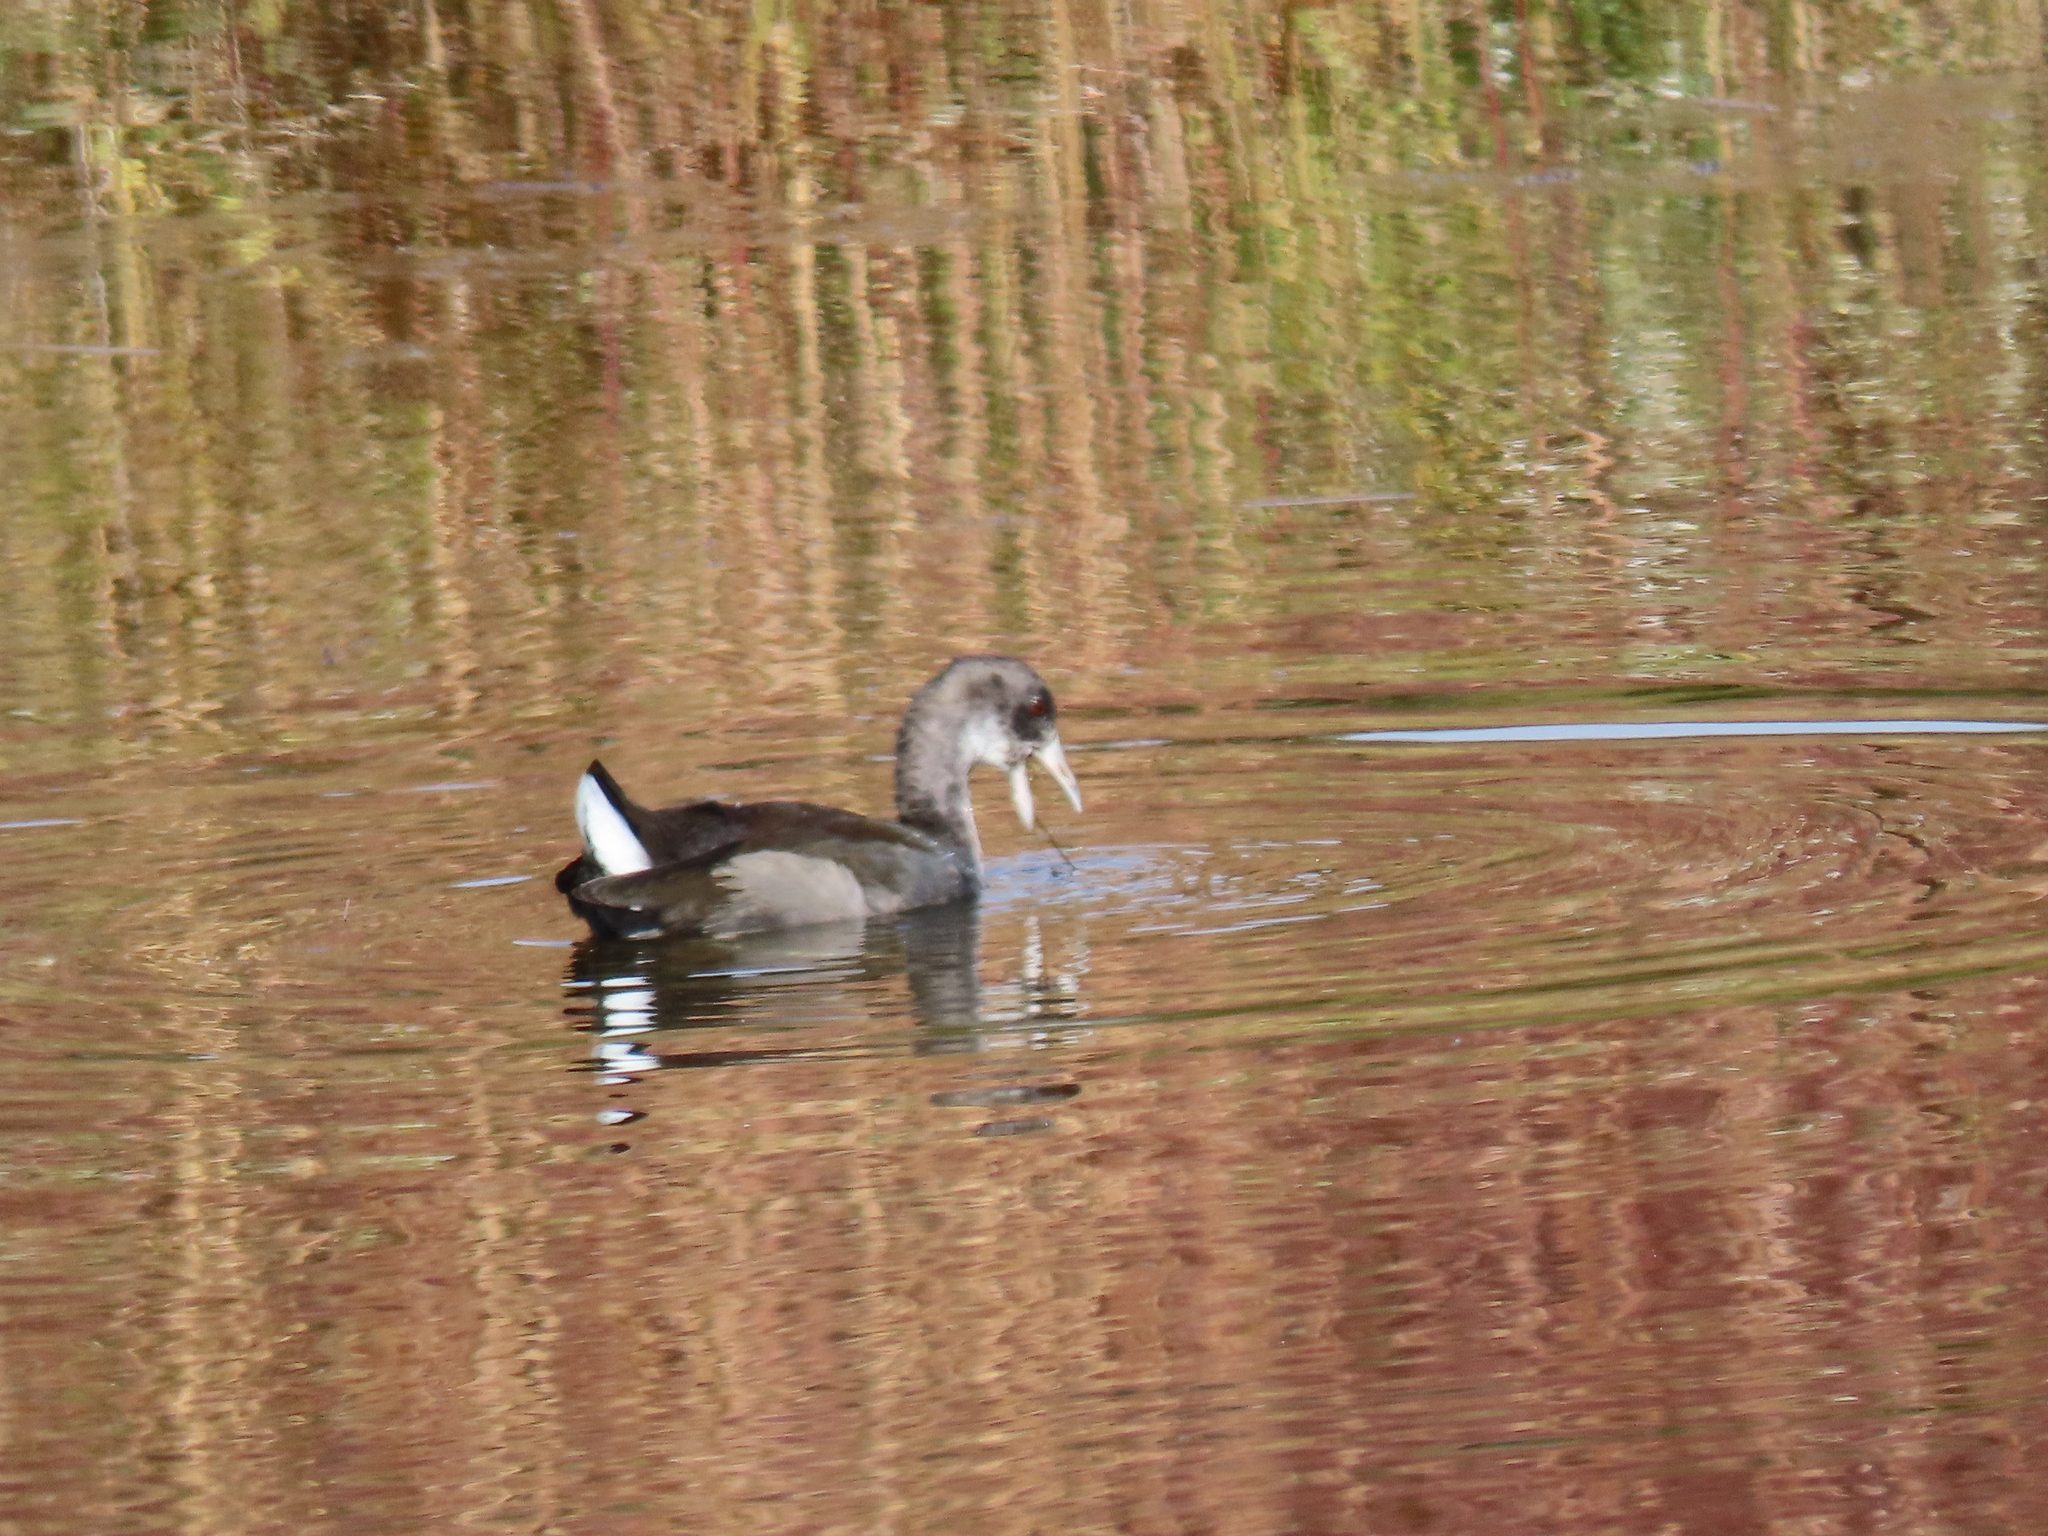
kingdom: Animalia
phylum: Chordata
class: Aves
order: Gruiformes
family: Rallidae
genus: Fulica
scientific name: Fulica americana
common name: American coot
